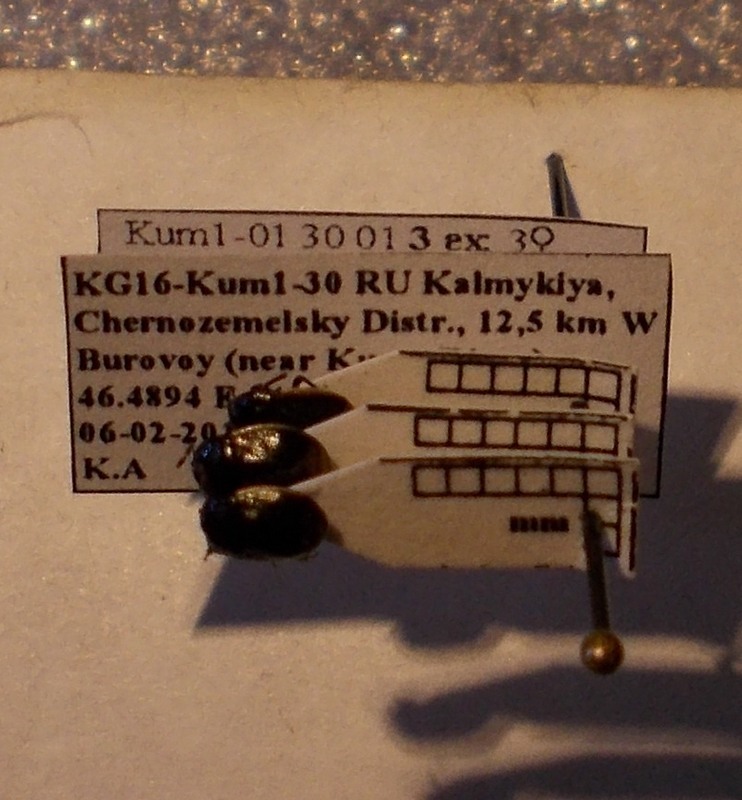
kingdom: Animalia
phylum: Arthropoda
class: Insecta
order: Hemiptera
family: Cydnidae
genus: Legnotus
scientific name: Legnotus limbosus
